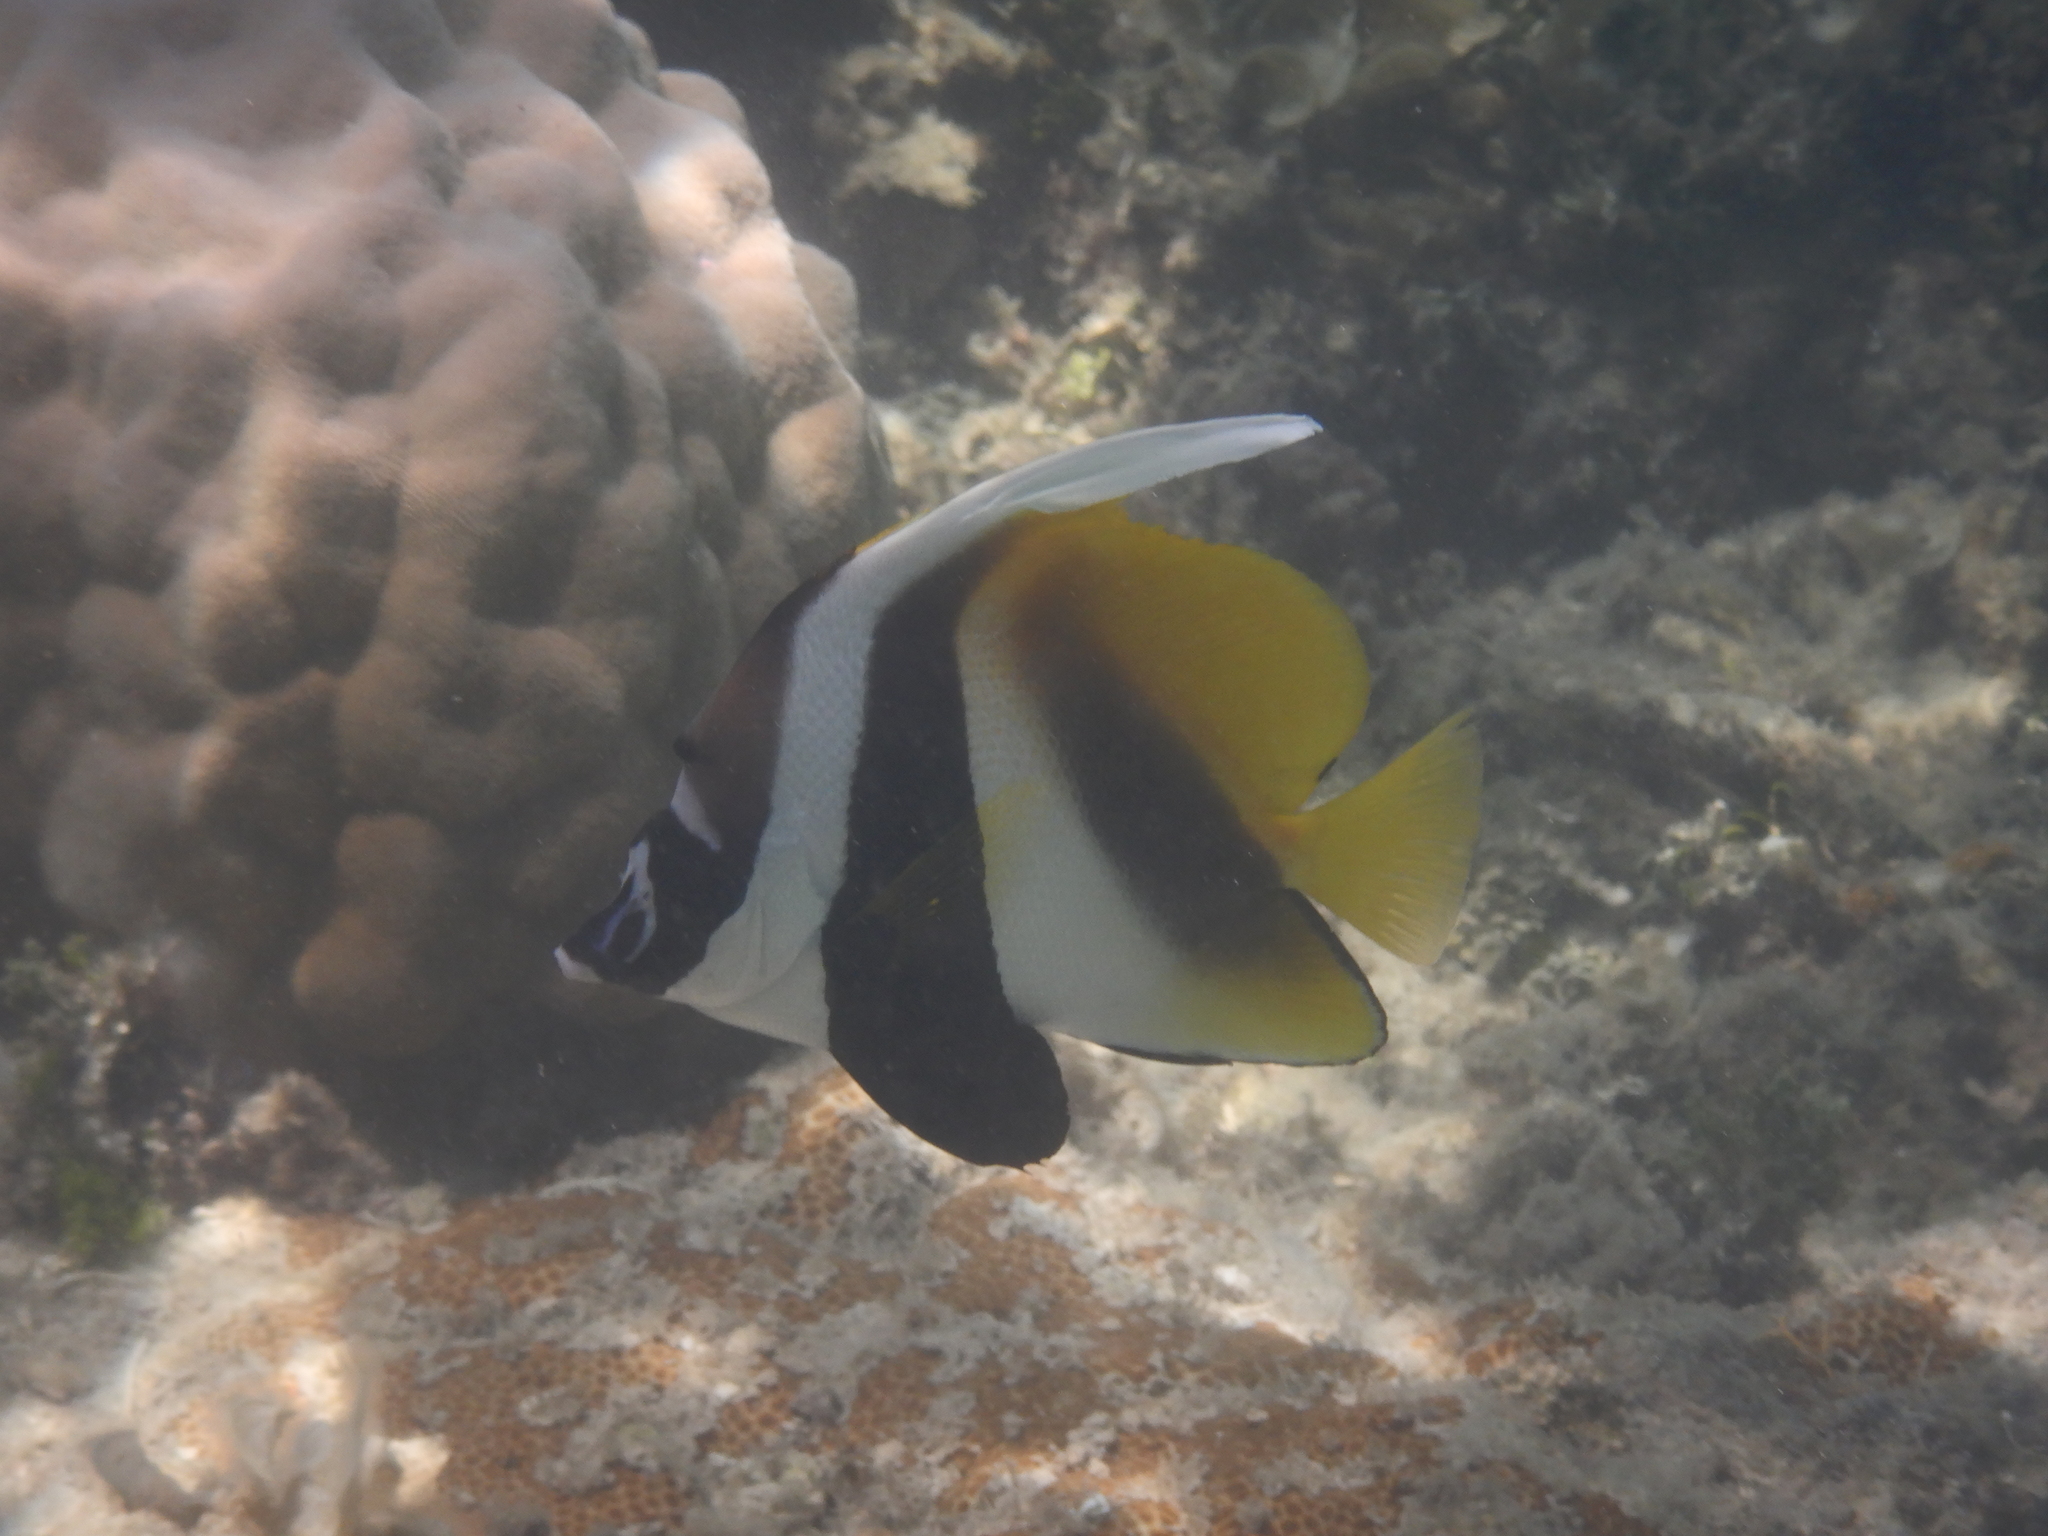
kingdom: Animalia
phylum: Chordata
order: Perciformes
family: Chaetodontidae
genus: Heniochus
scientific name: Heniochus monoceros
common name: Masked bannerfish
